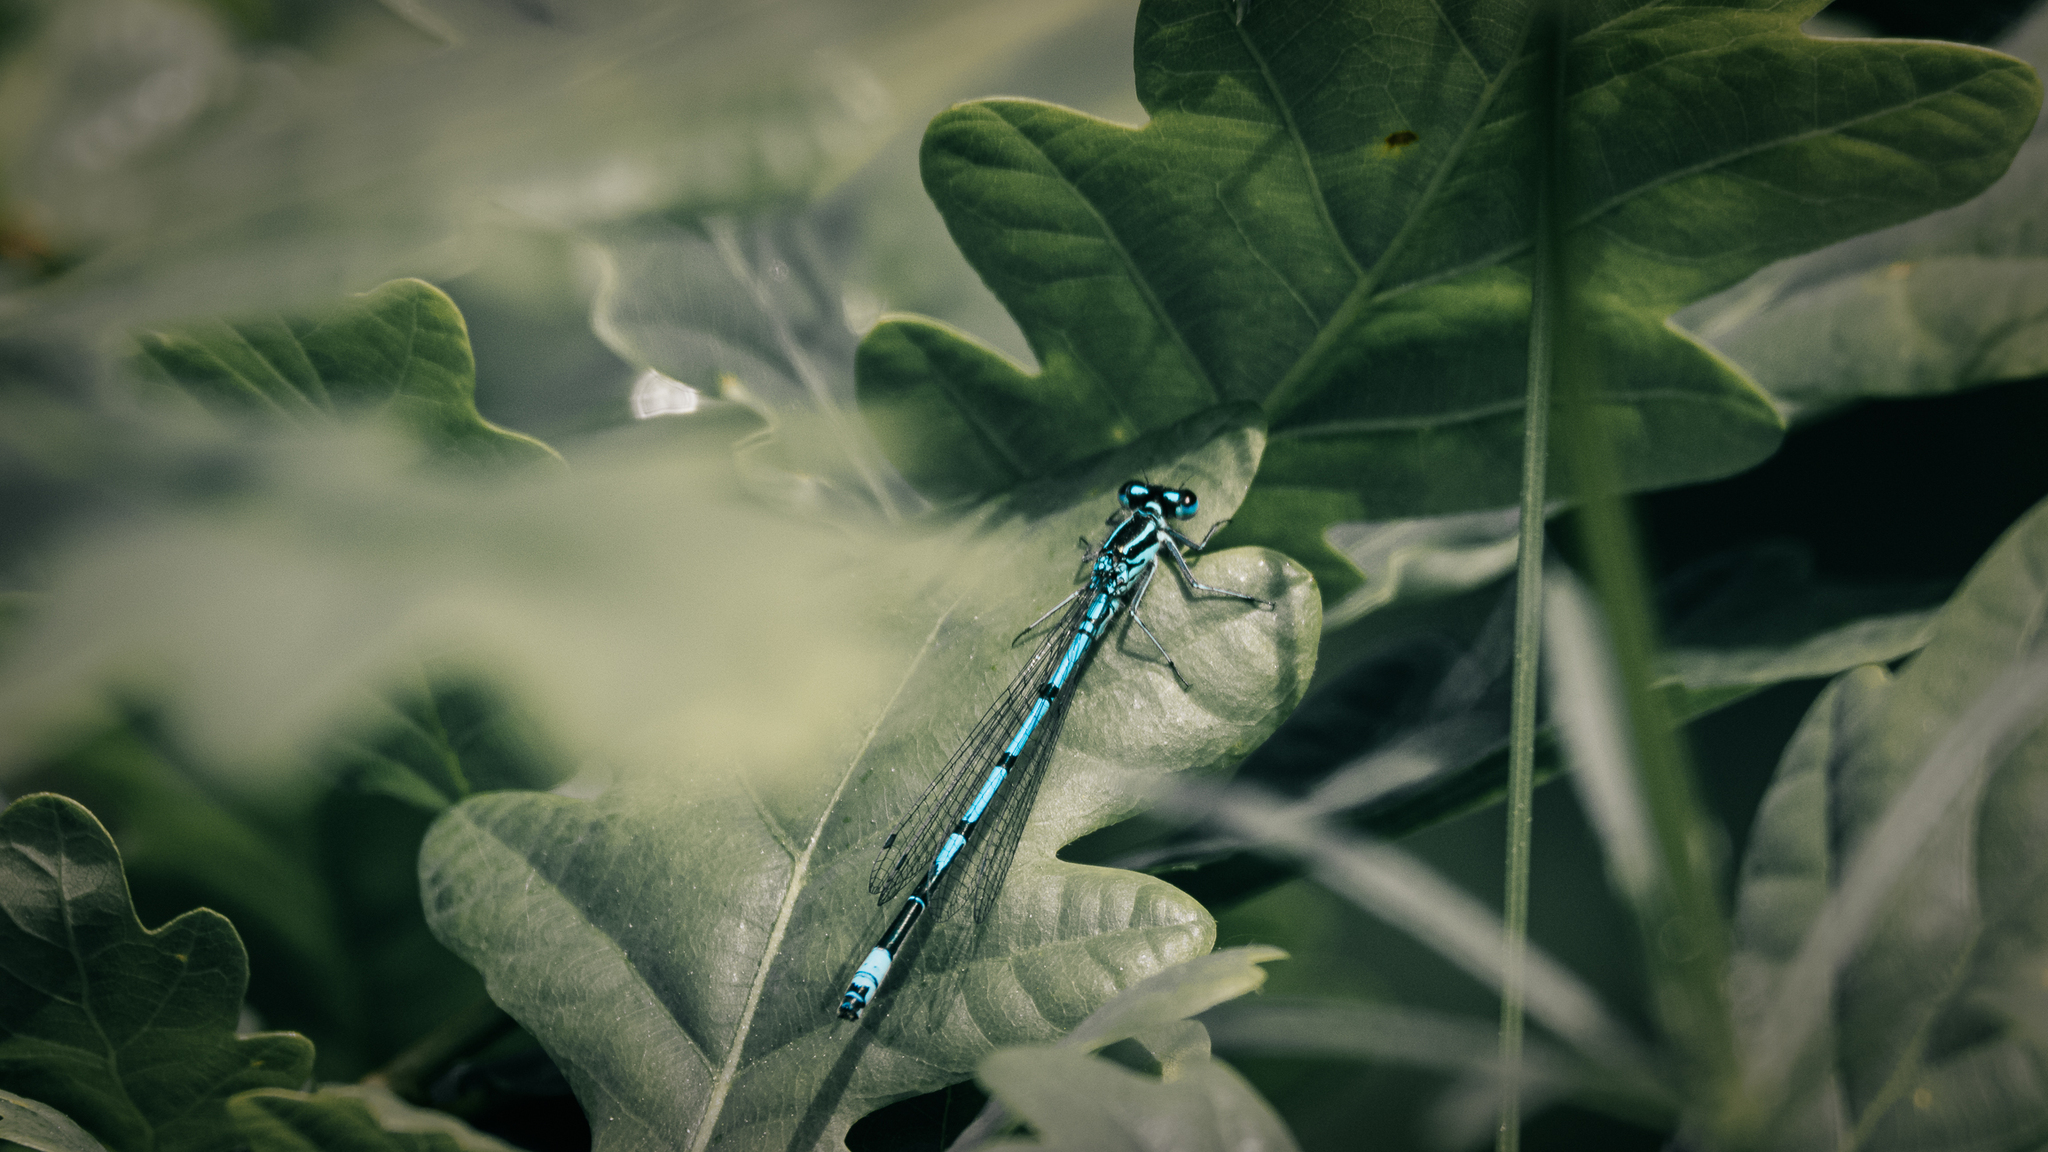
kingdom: Animalia
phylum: Arthropoda
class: Insecta
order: Odonata
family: Coenagrionidae
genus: Coenagrion
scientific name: Coenagrion puella
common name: Azure damselfly
